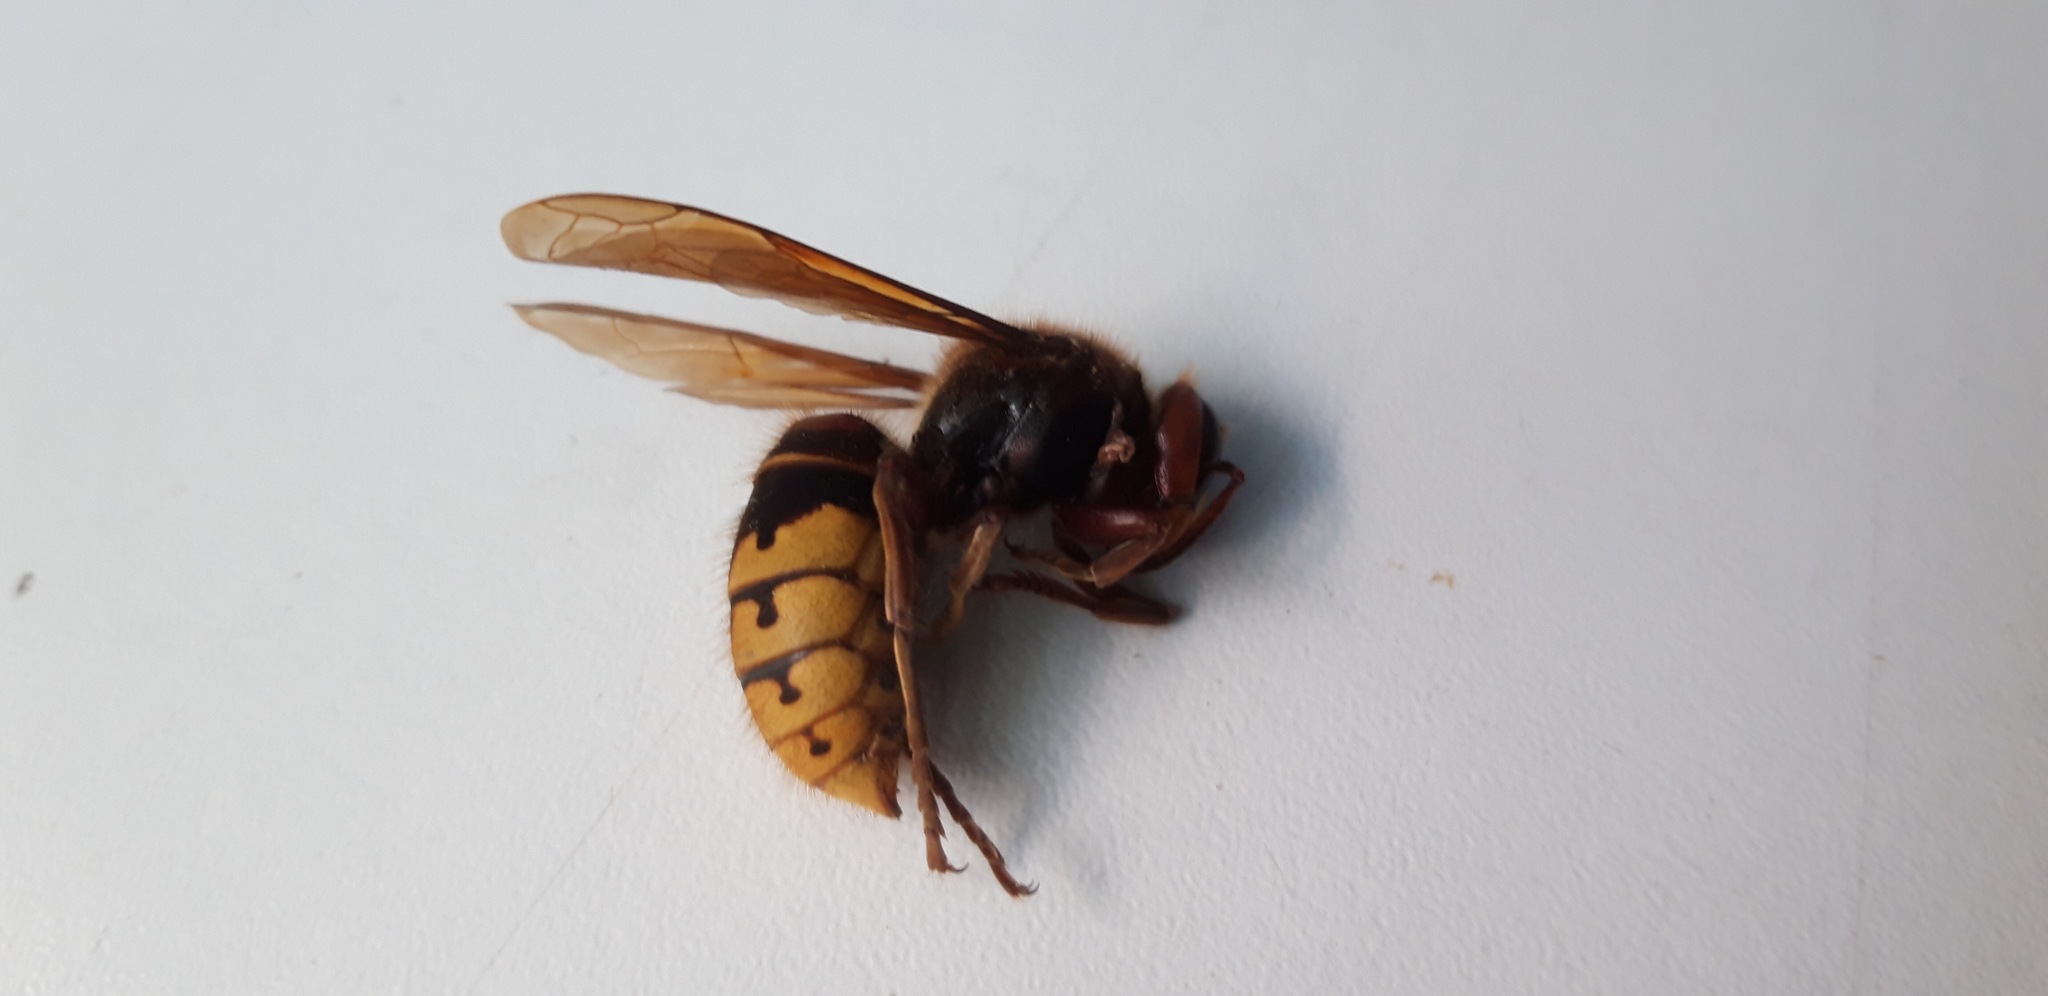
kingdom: Animalia
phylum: Arthropoda
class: Insecta
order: Hymenoptera
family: Vespidae
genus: Vespa
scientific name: Vespa crabro
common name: Hornet
